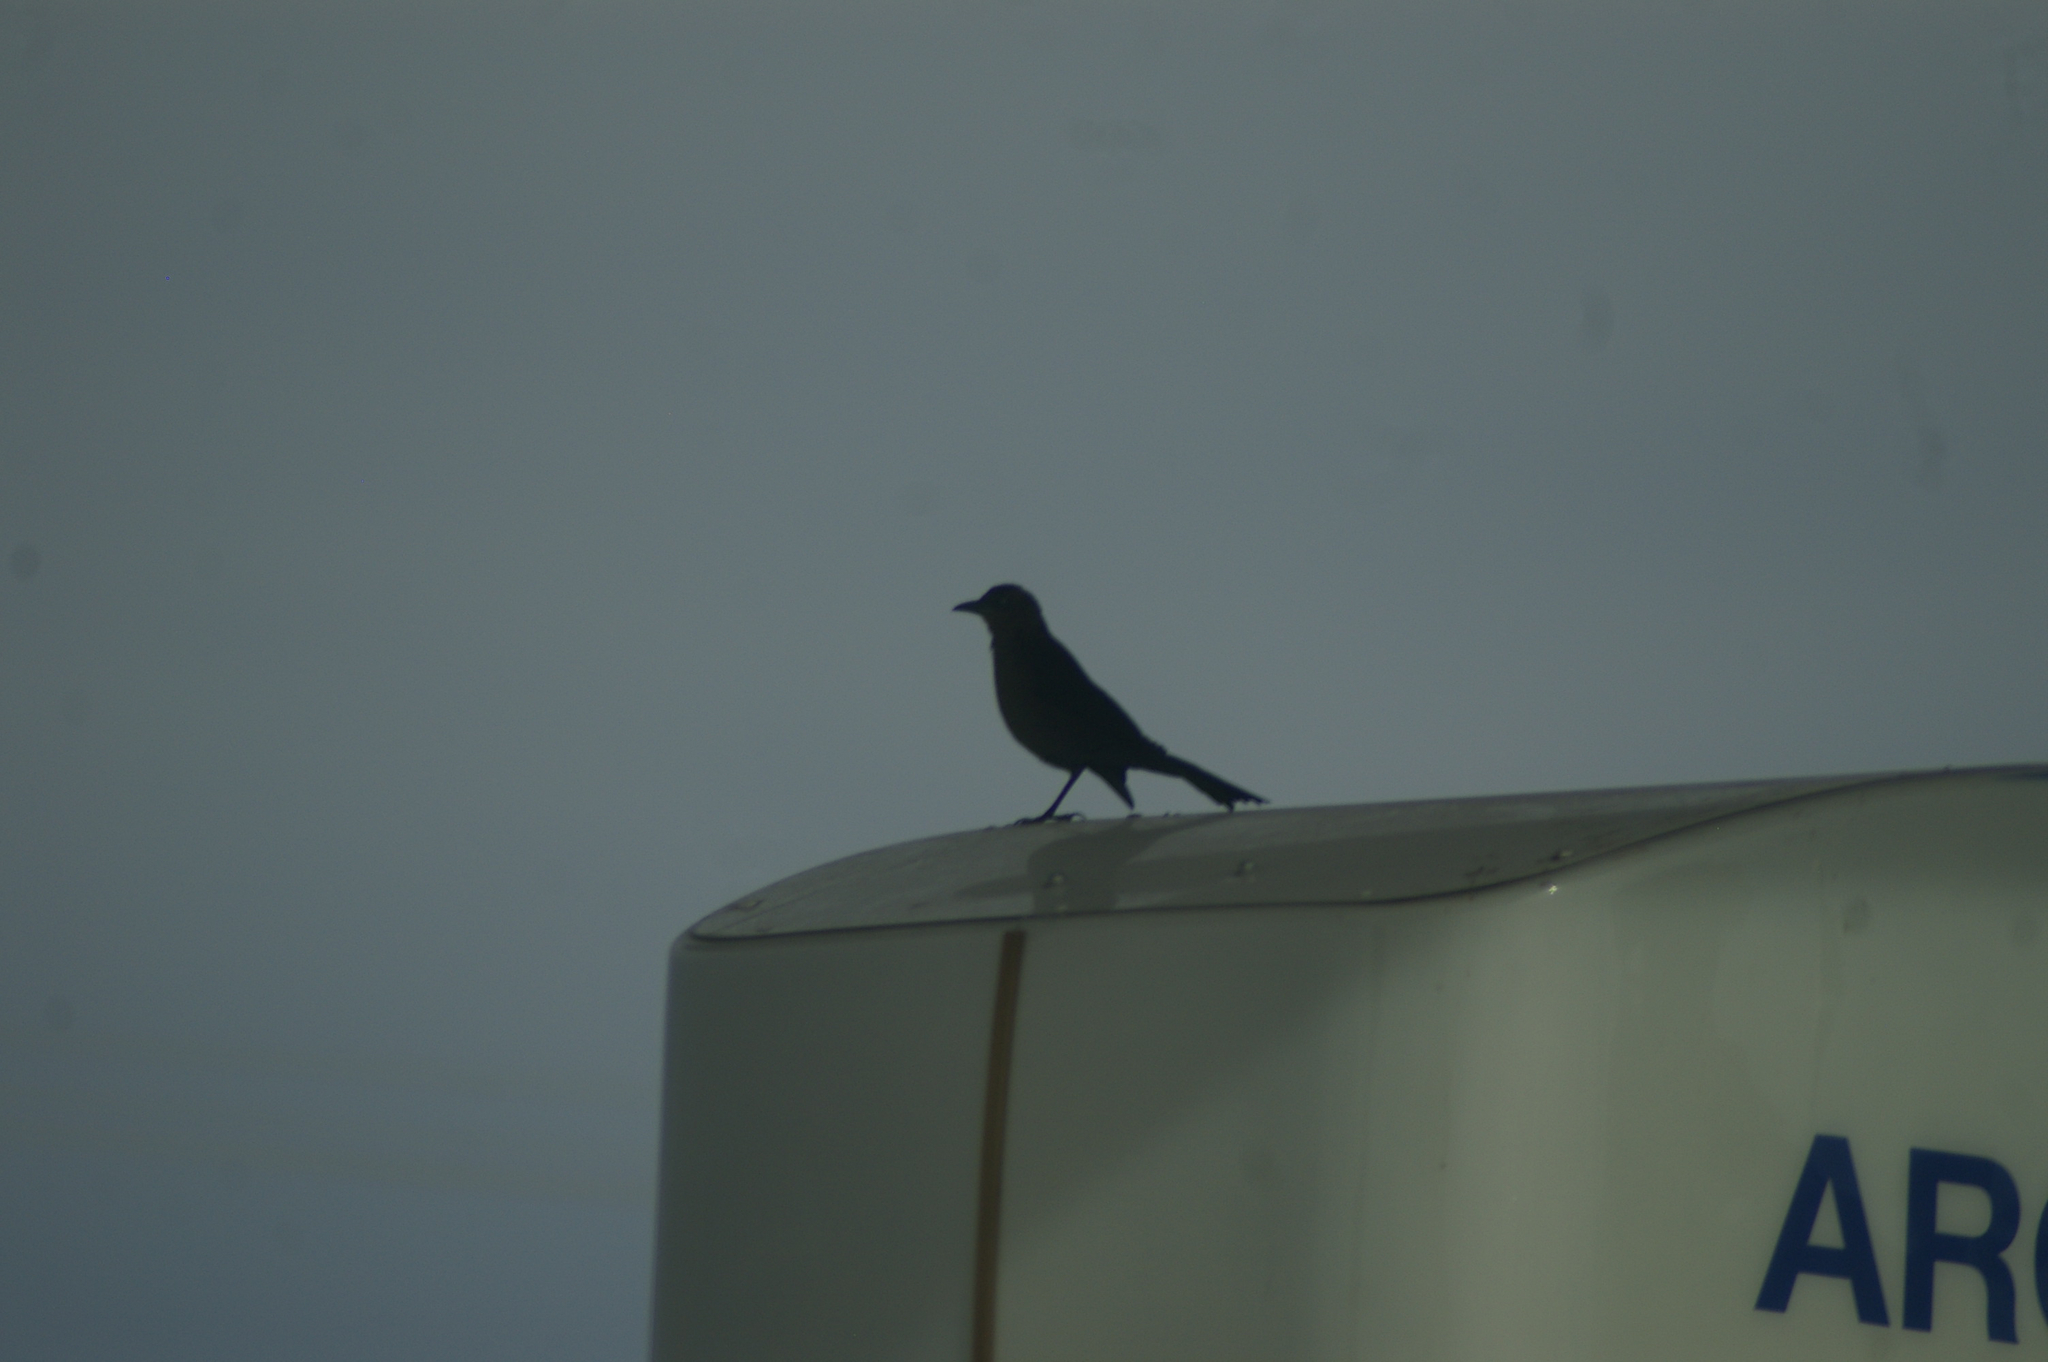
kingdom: Animalia
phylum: Chordata
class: Aves
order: Passeriformes
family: Icteridae
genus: Quiscalus
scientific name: Quiscalus mexicanus
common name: Great-tailed grackle
